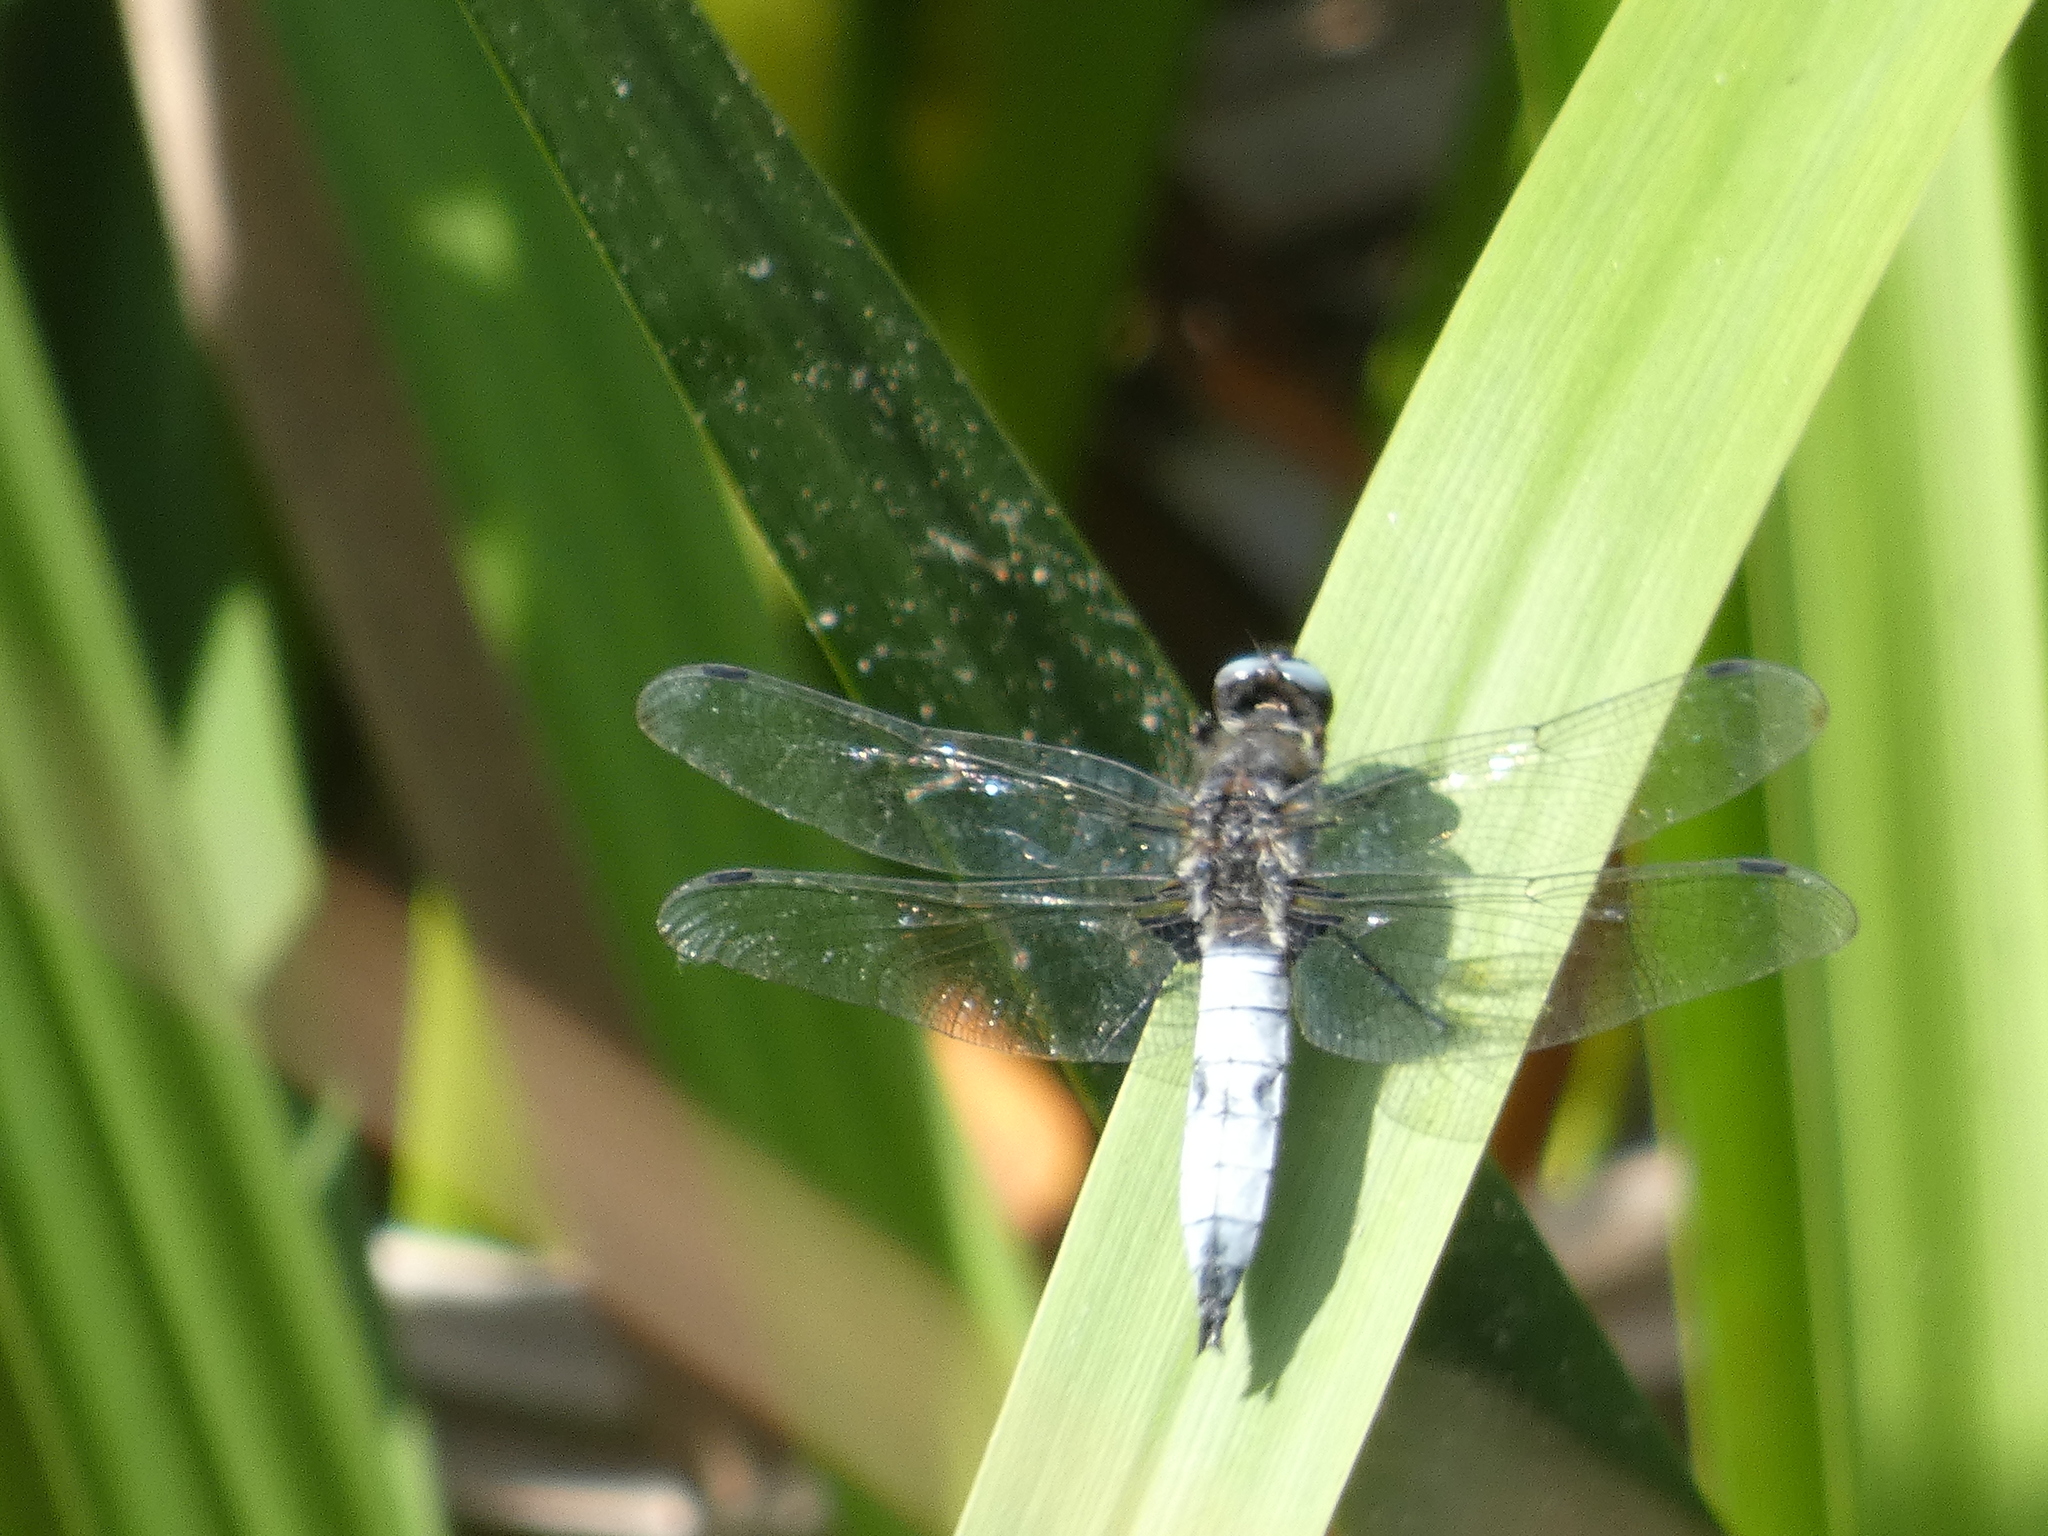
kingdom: Animalia
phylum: Arthropoda
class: Insecta
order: Odonata
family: Libellulidae
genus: Libellula
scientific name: Libellula fulva
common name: Blue chaser
